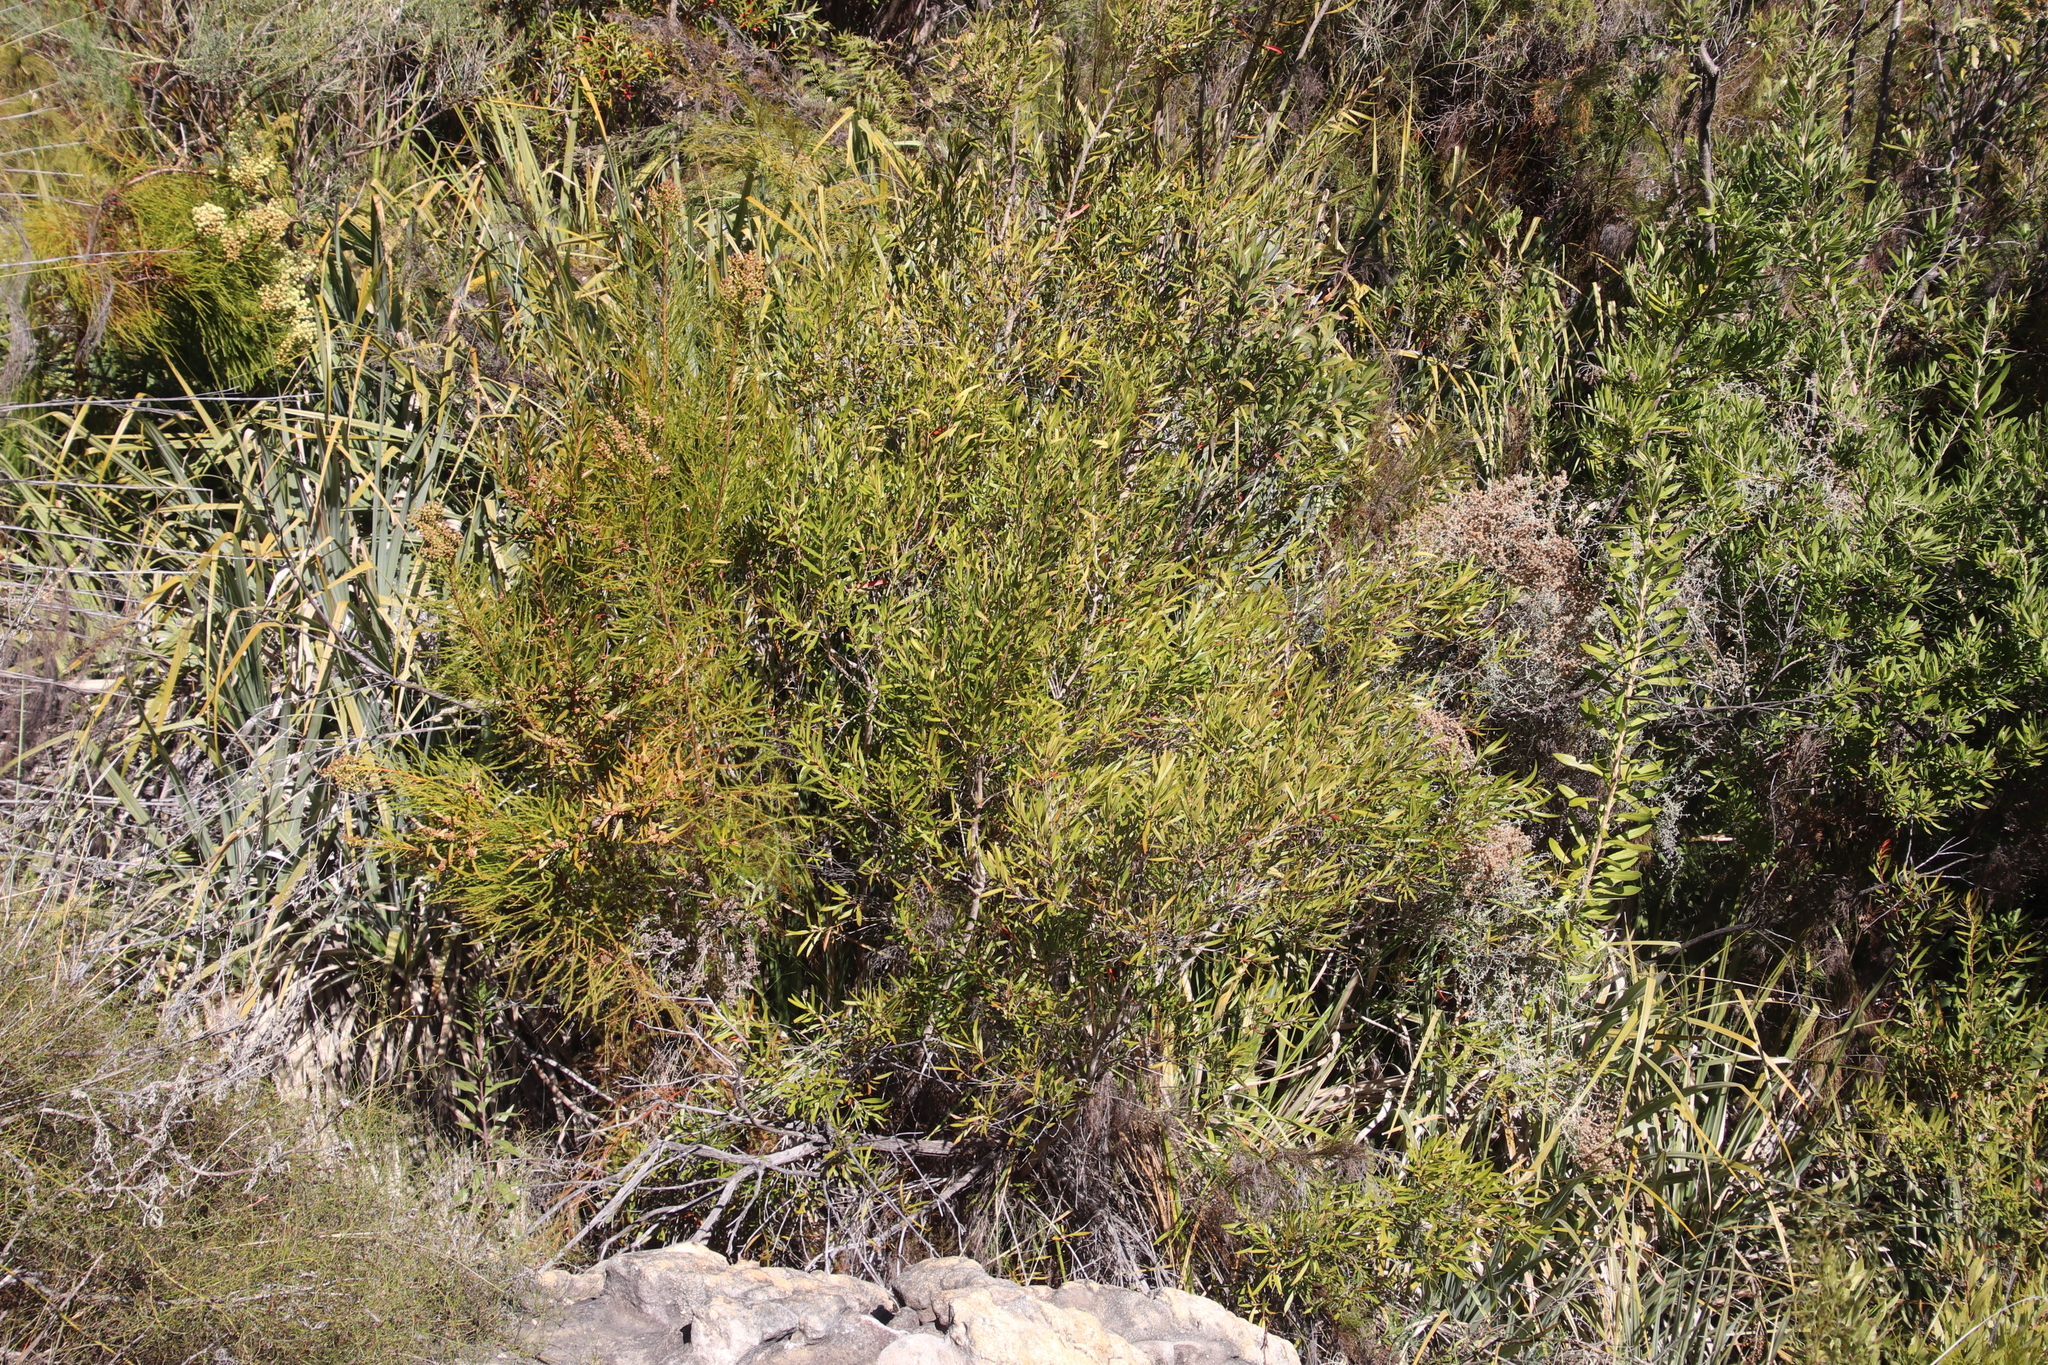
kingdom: Plantae
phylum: Tracheophyta
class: Magnoliopsida
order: Myrtales
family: Myrtaceae
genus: Callistemon
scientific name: Callistemon lanceolatus
